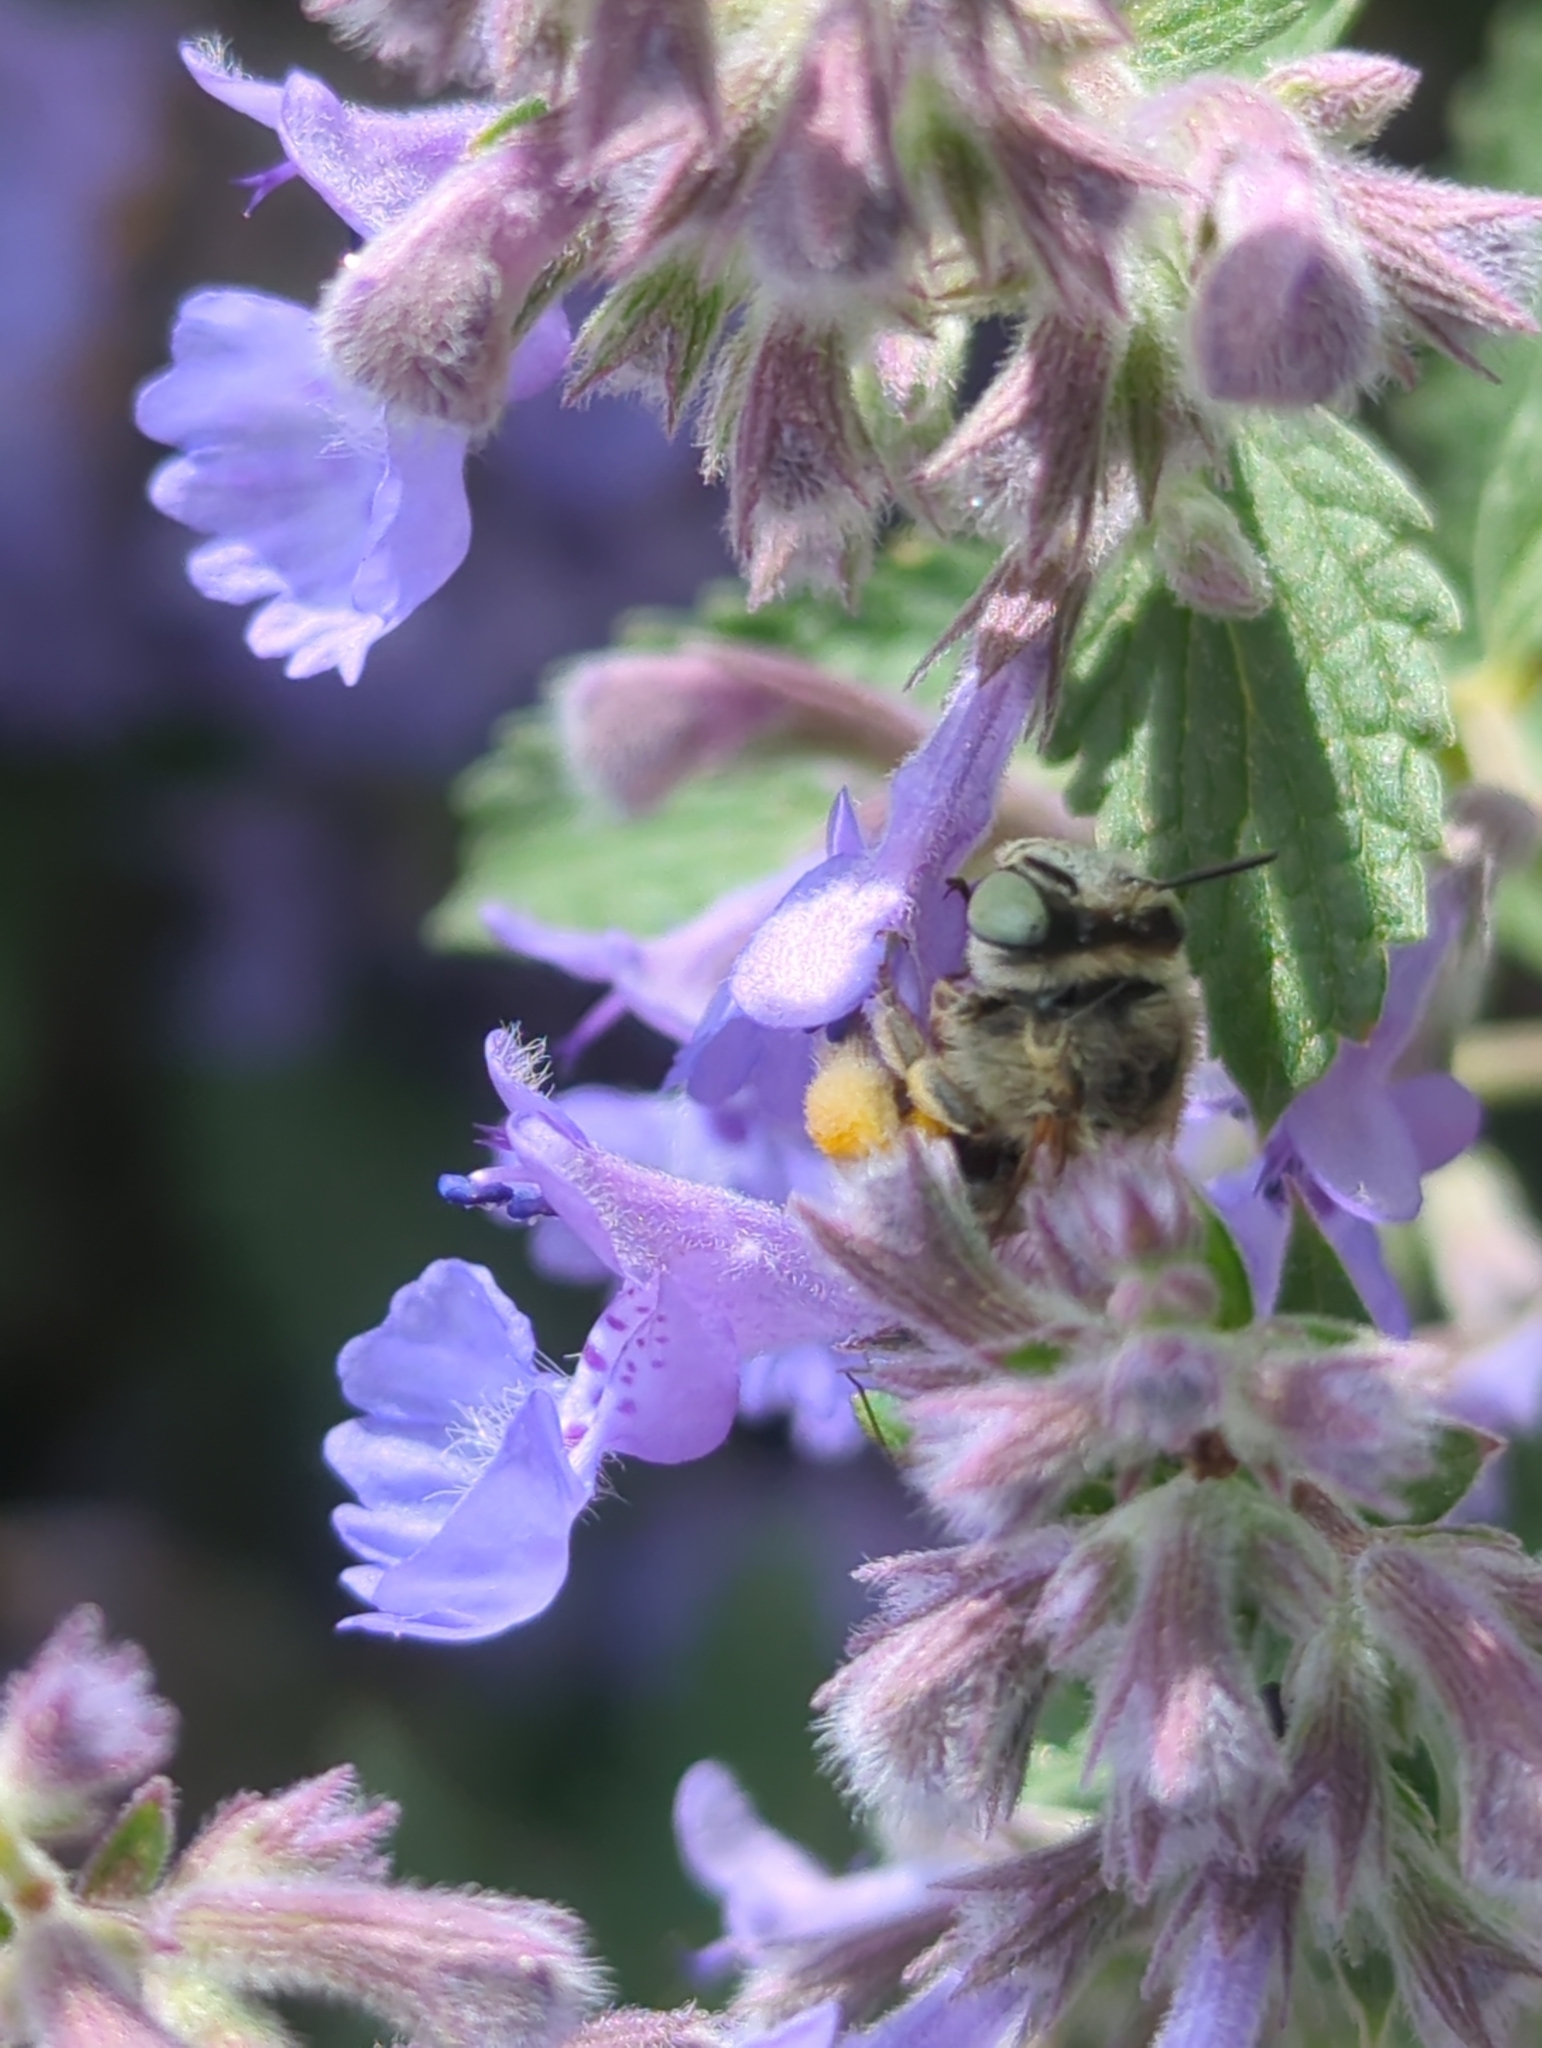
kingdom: Animalia
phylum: Arthropoda
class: Insecta
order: Hymenoptera
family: Apidae
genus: Anthophora
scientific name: Anthophora bimaculata
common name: Green-eyed flower bee
